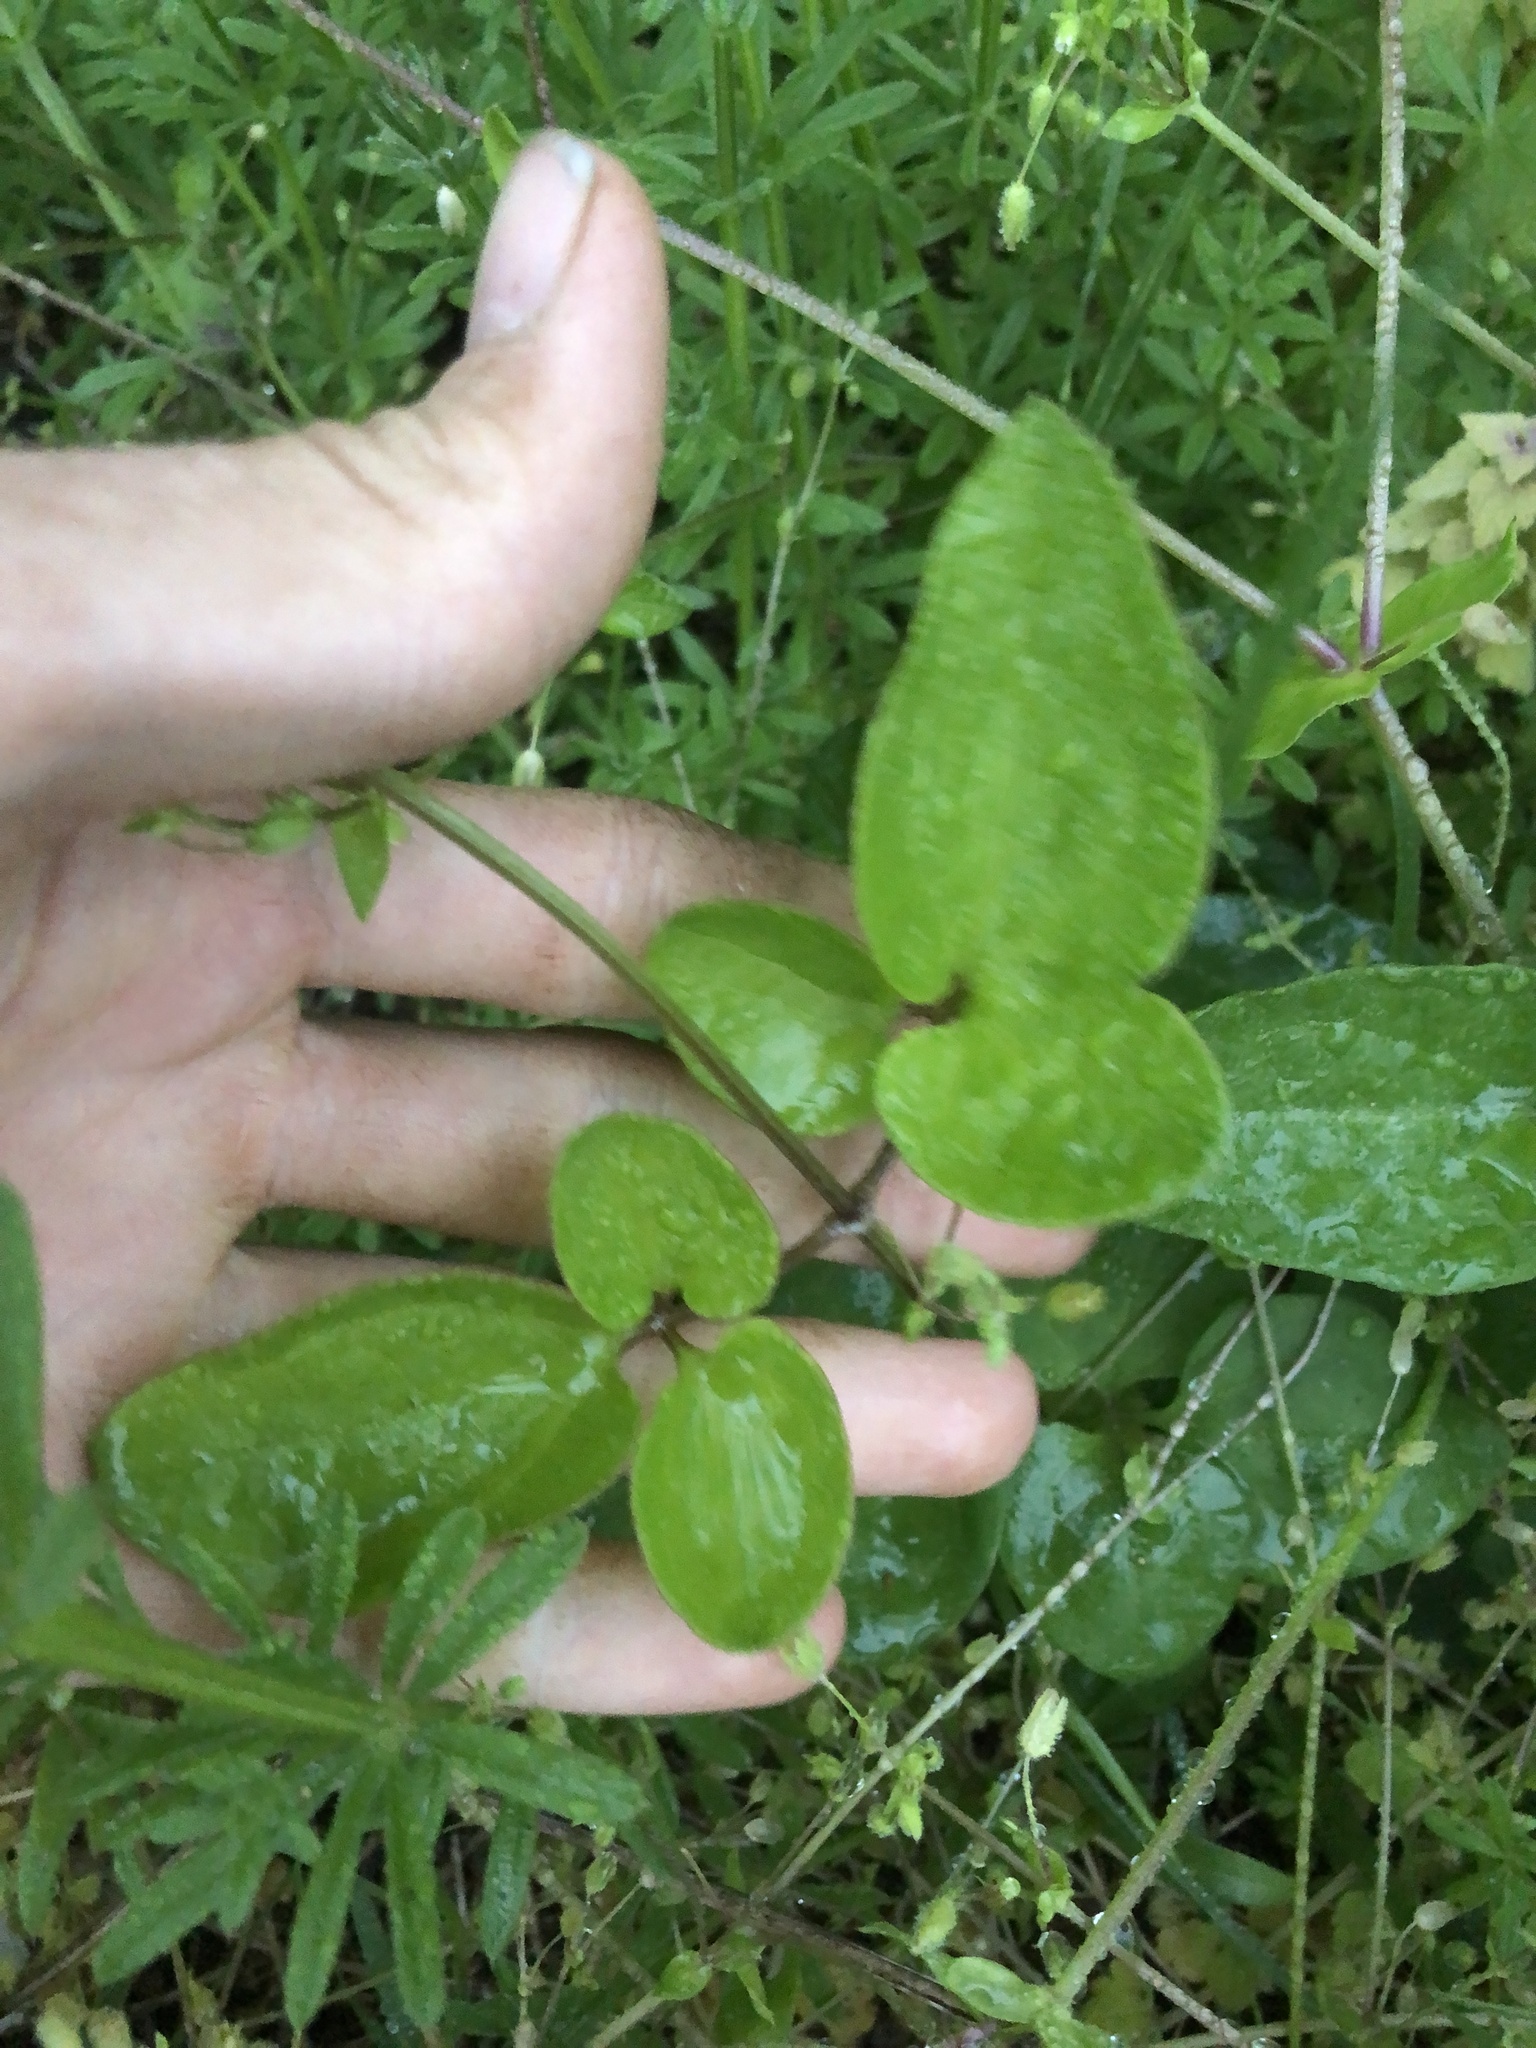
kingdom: Plantae
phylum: Tracheophyta
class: Magnoliopsida
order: Ranunculales
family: Ranunculaceae
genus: Clematis
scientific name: Clematis terniflora
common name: Sweet autumn clematis
